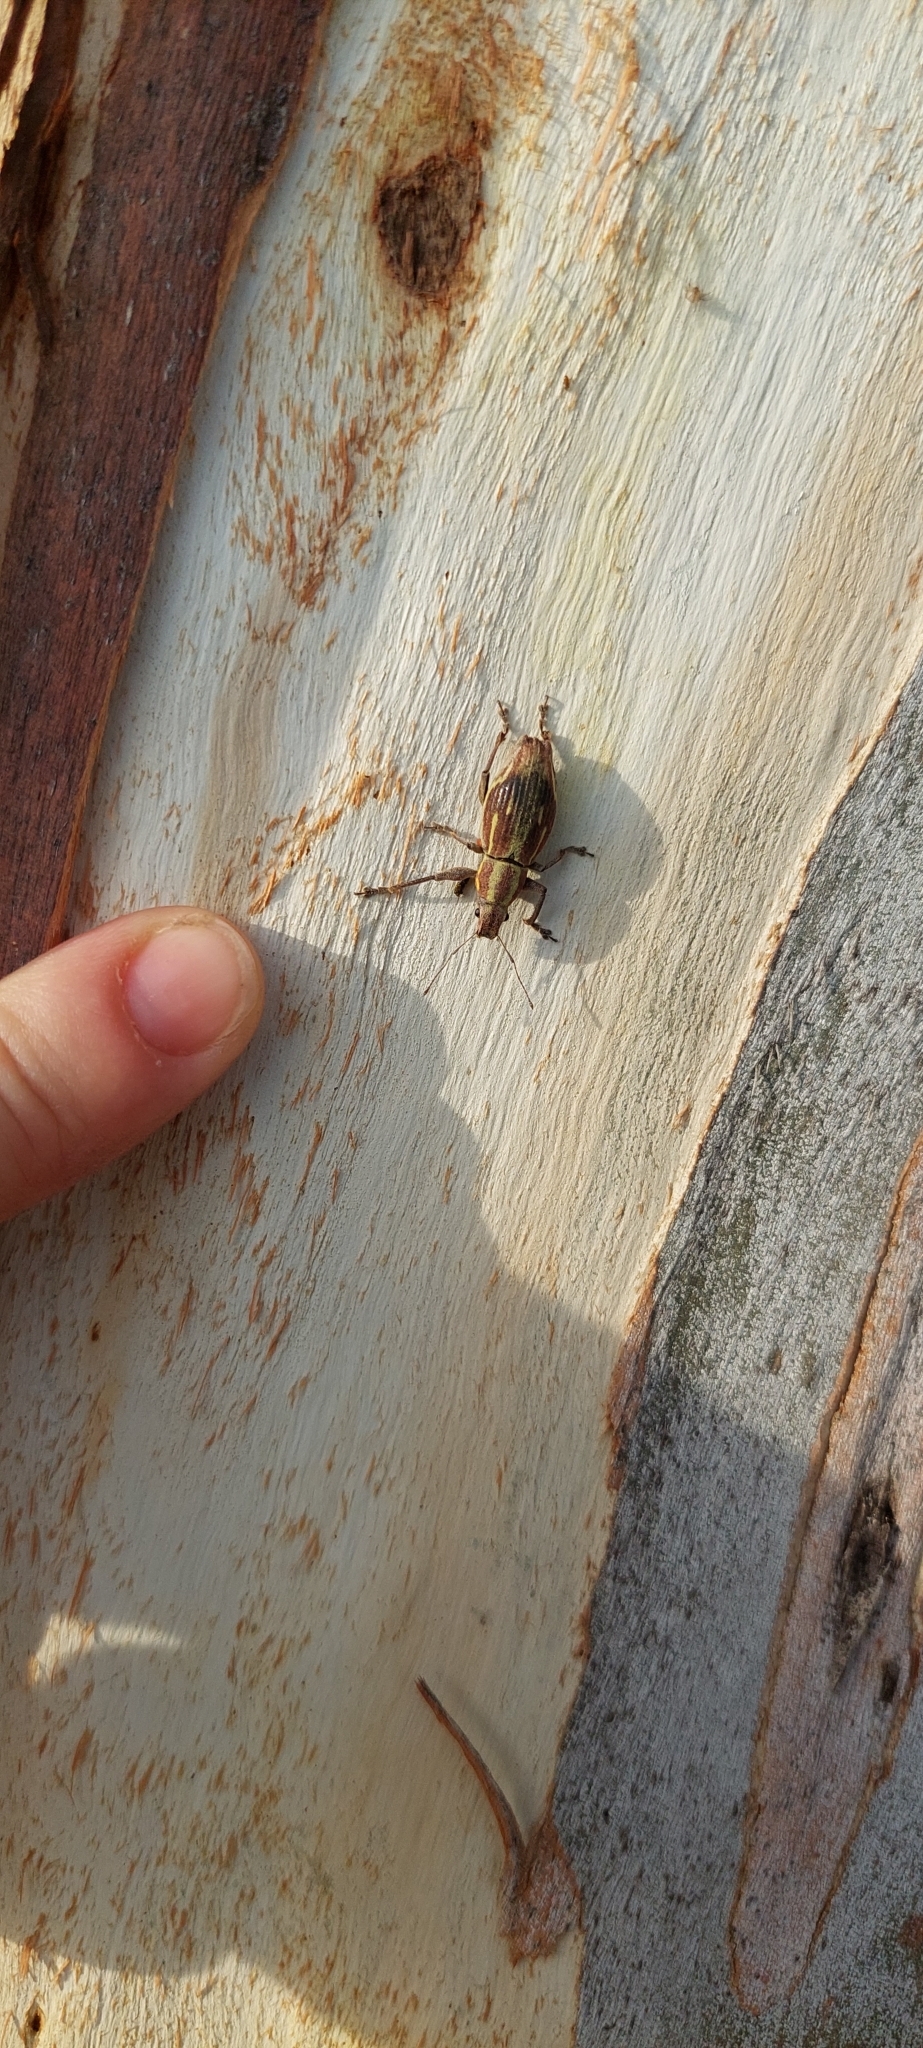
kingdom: Animalia
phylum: Arthropoda
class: Insecta
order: Coleoptera
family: Curculionidae
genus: Naupactus
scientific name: Naupactus xanthographus
